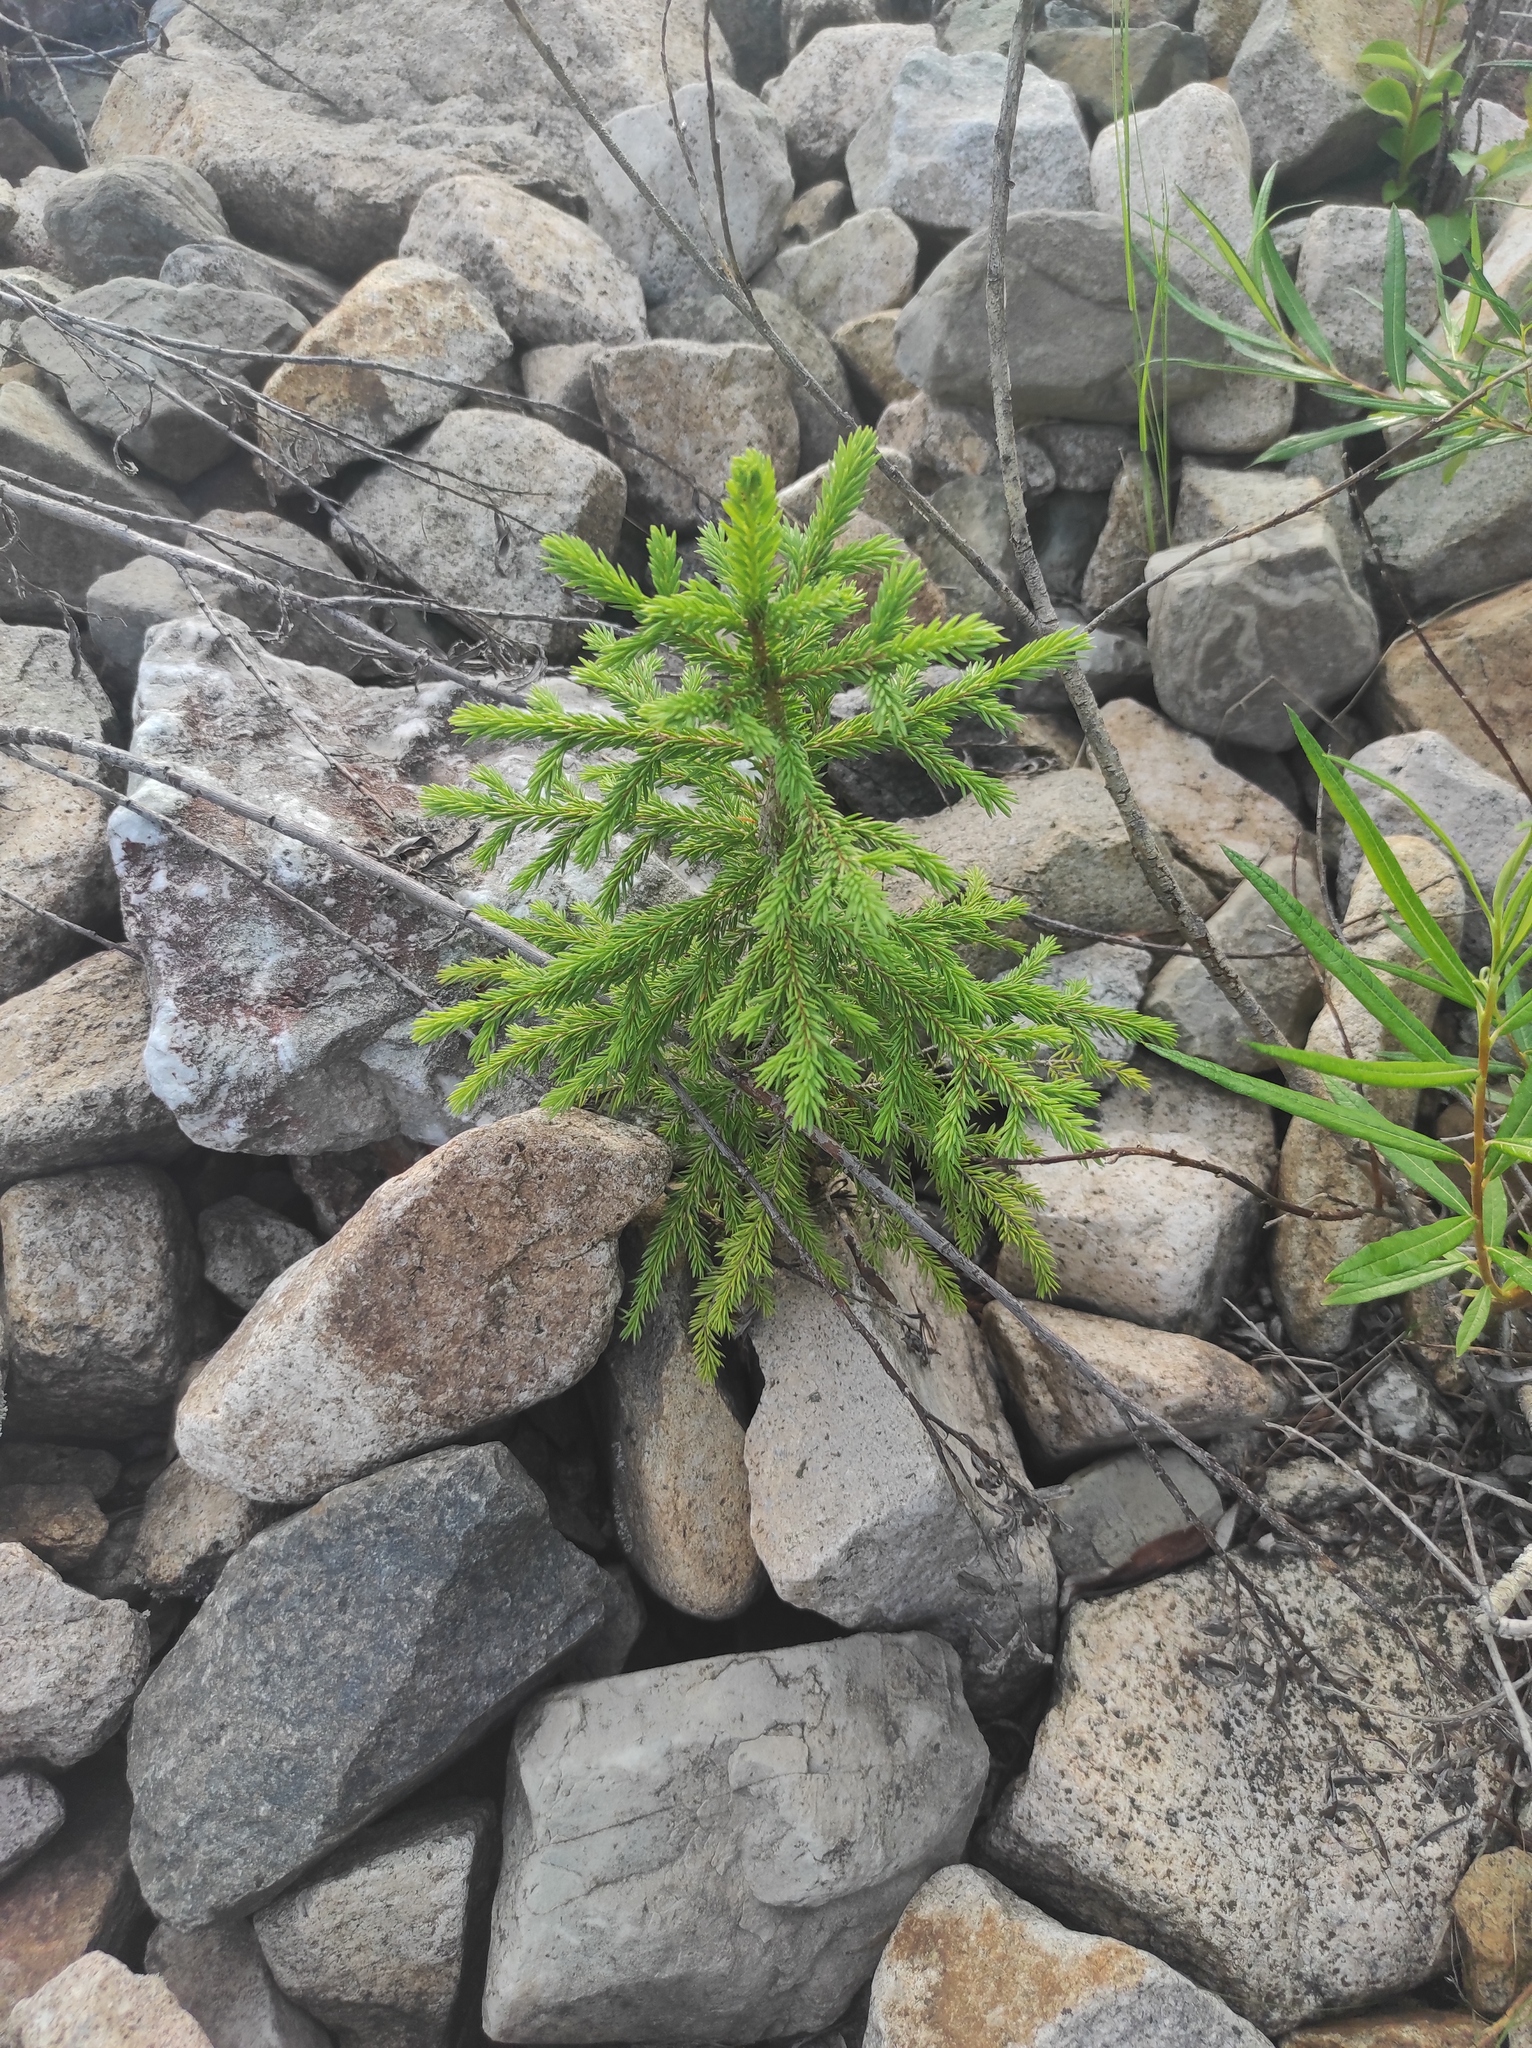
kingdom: Plantae
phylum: Tracheophyta
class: Pinopsida
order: Pinales
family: Pinaceae
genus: Picea
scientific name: Picea obovata
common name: Siberian spruce
